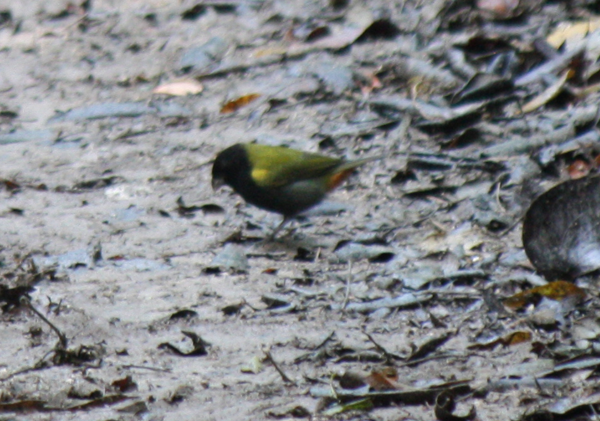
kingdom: Animalia
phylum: Chordata
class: Aves
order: Passeriformes
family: Thraupidae
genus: Loxipasser
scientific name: Loxipasser anoxanthus
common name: Yellow-shouldered grassquit
